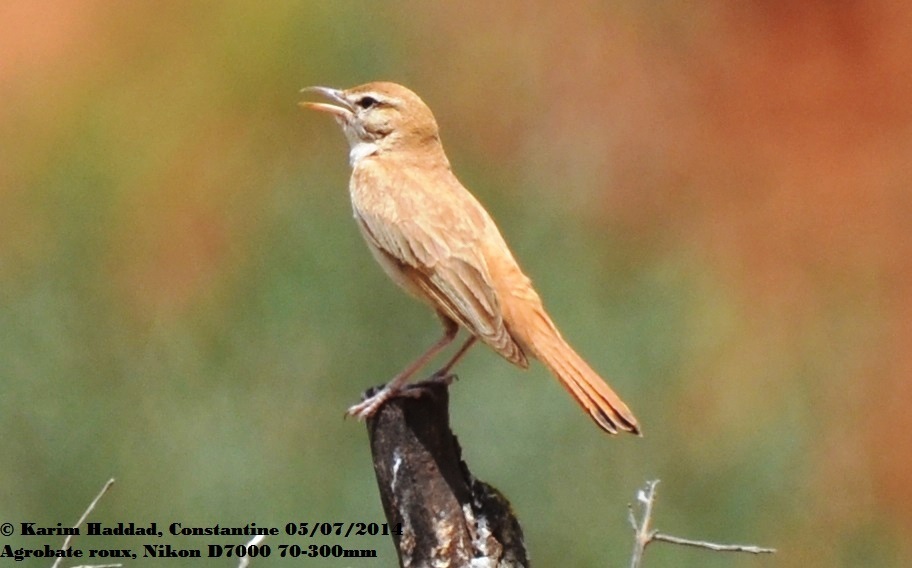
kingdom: Animalia
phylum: Chordata
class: Aves
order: Passeriformes
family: Muscicapidae
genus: Erythropygia
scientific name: Erythropygia galactotes
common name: Rufous-tailed scrub robin
